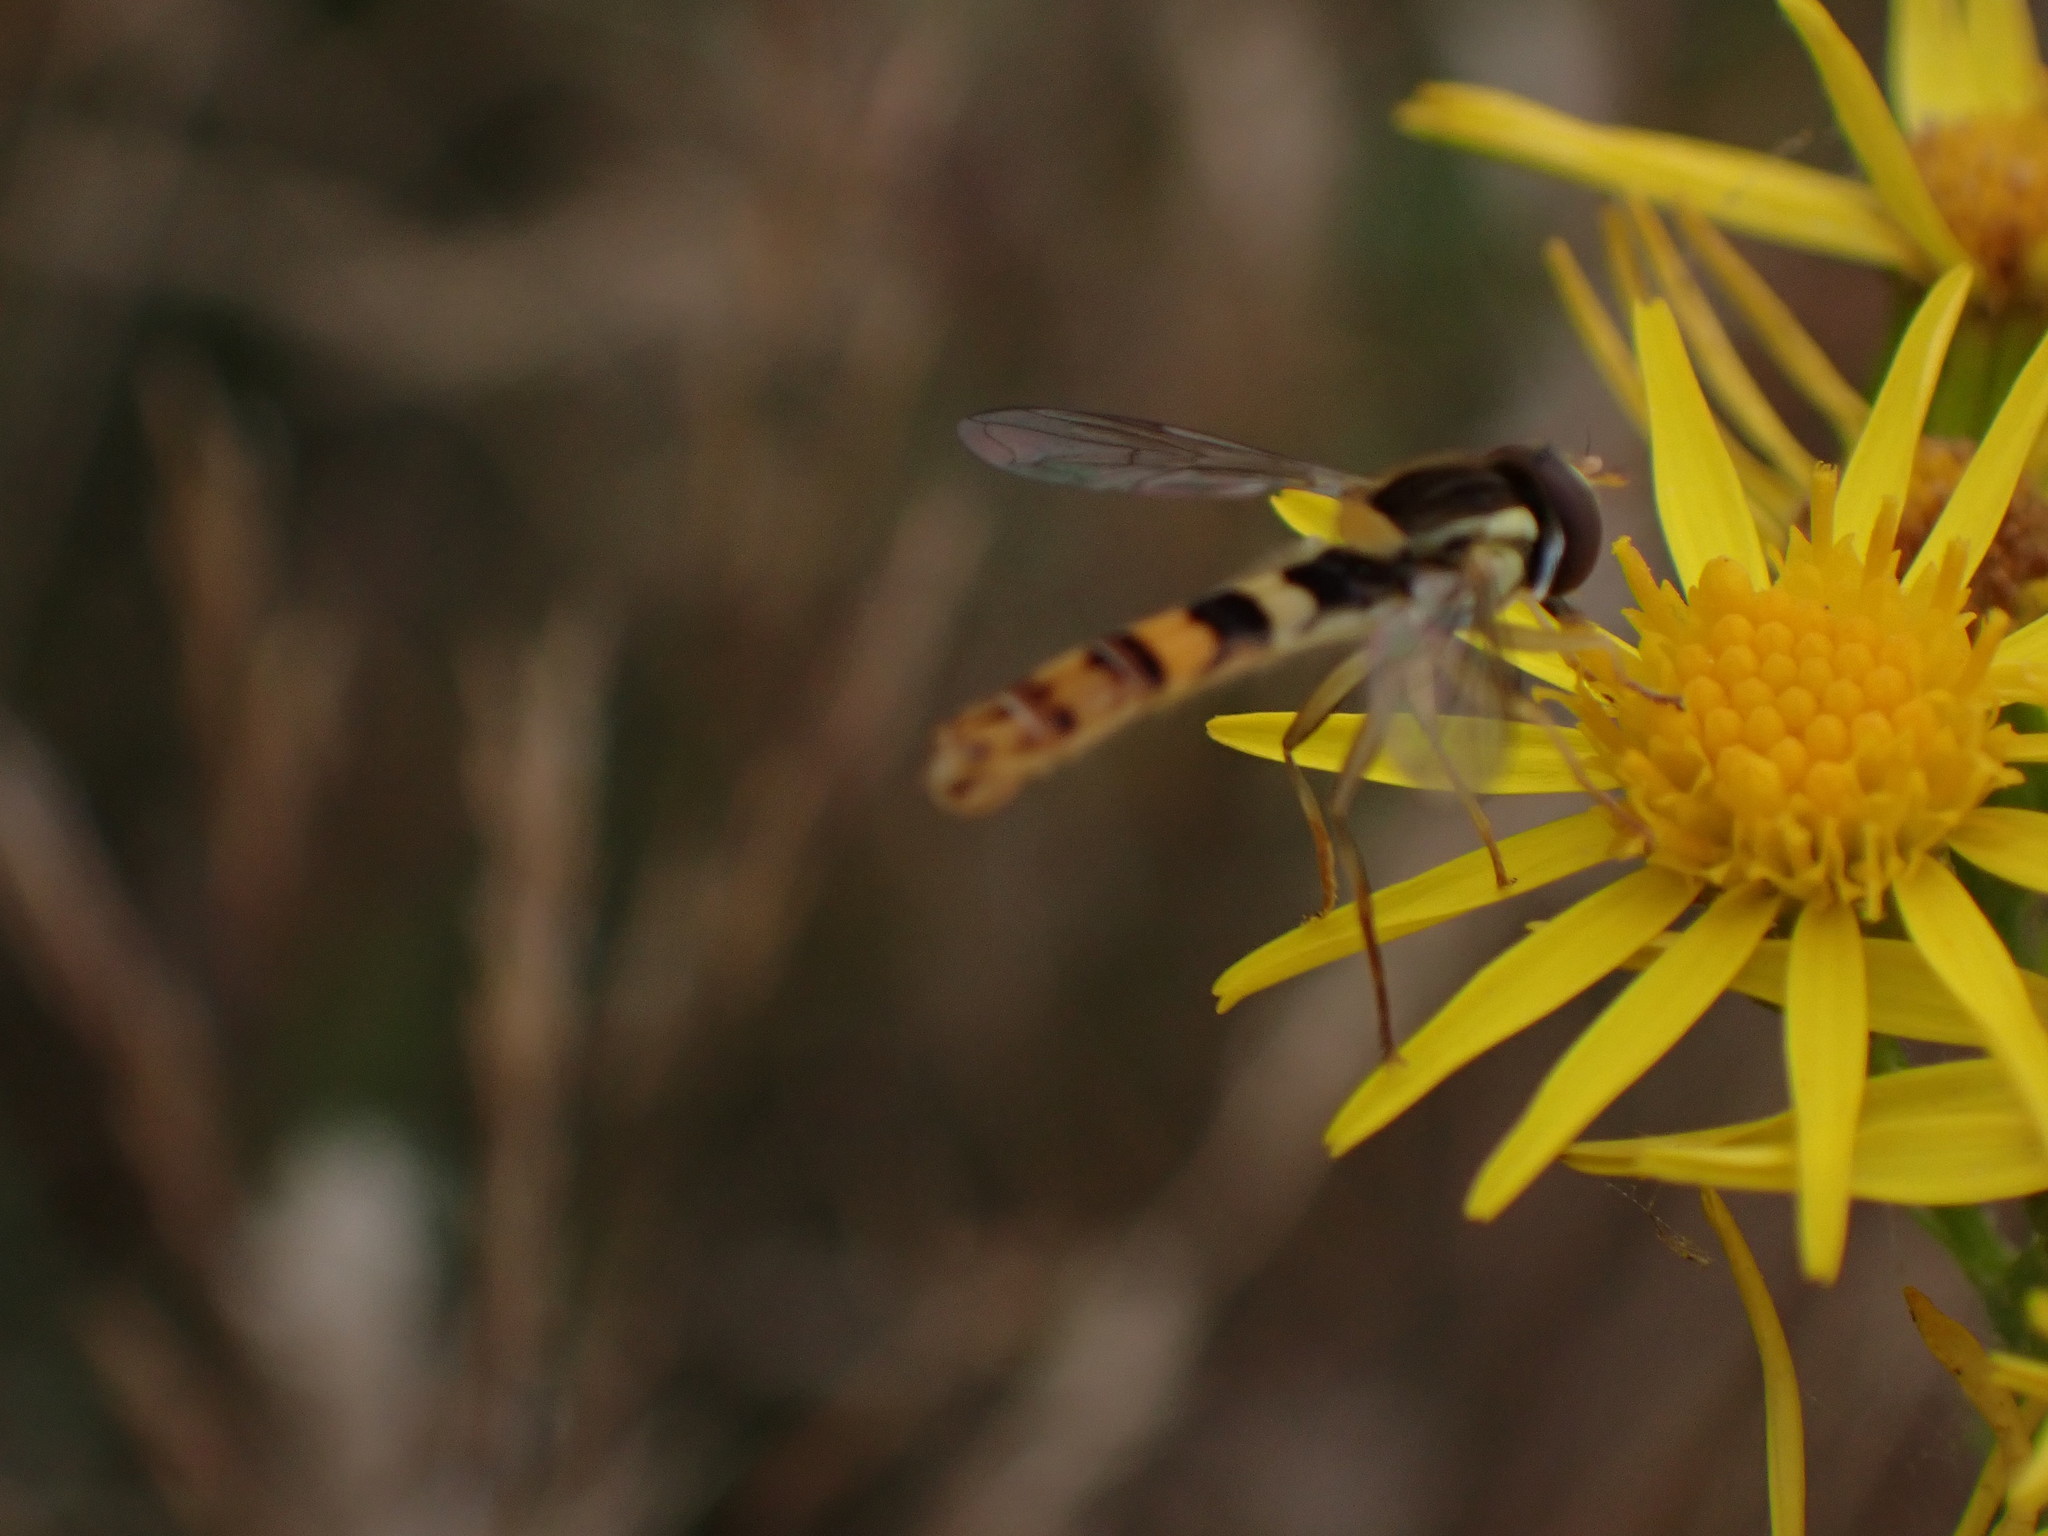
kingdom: Animalia
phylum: Arthropoda
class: Insecta
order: Diptera
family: Syrphidae
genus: Sphaerophoria
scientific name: Sphaerophoria scripta
